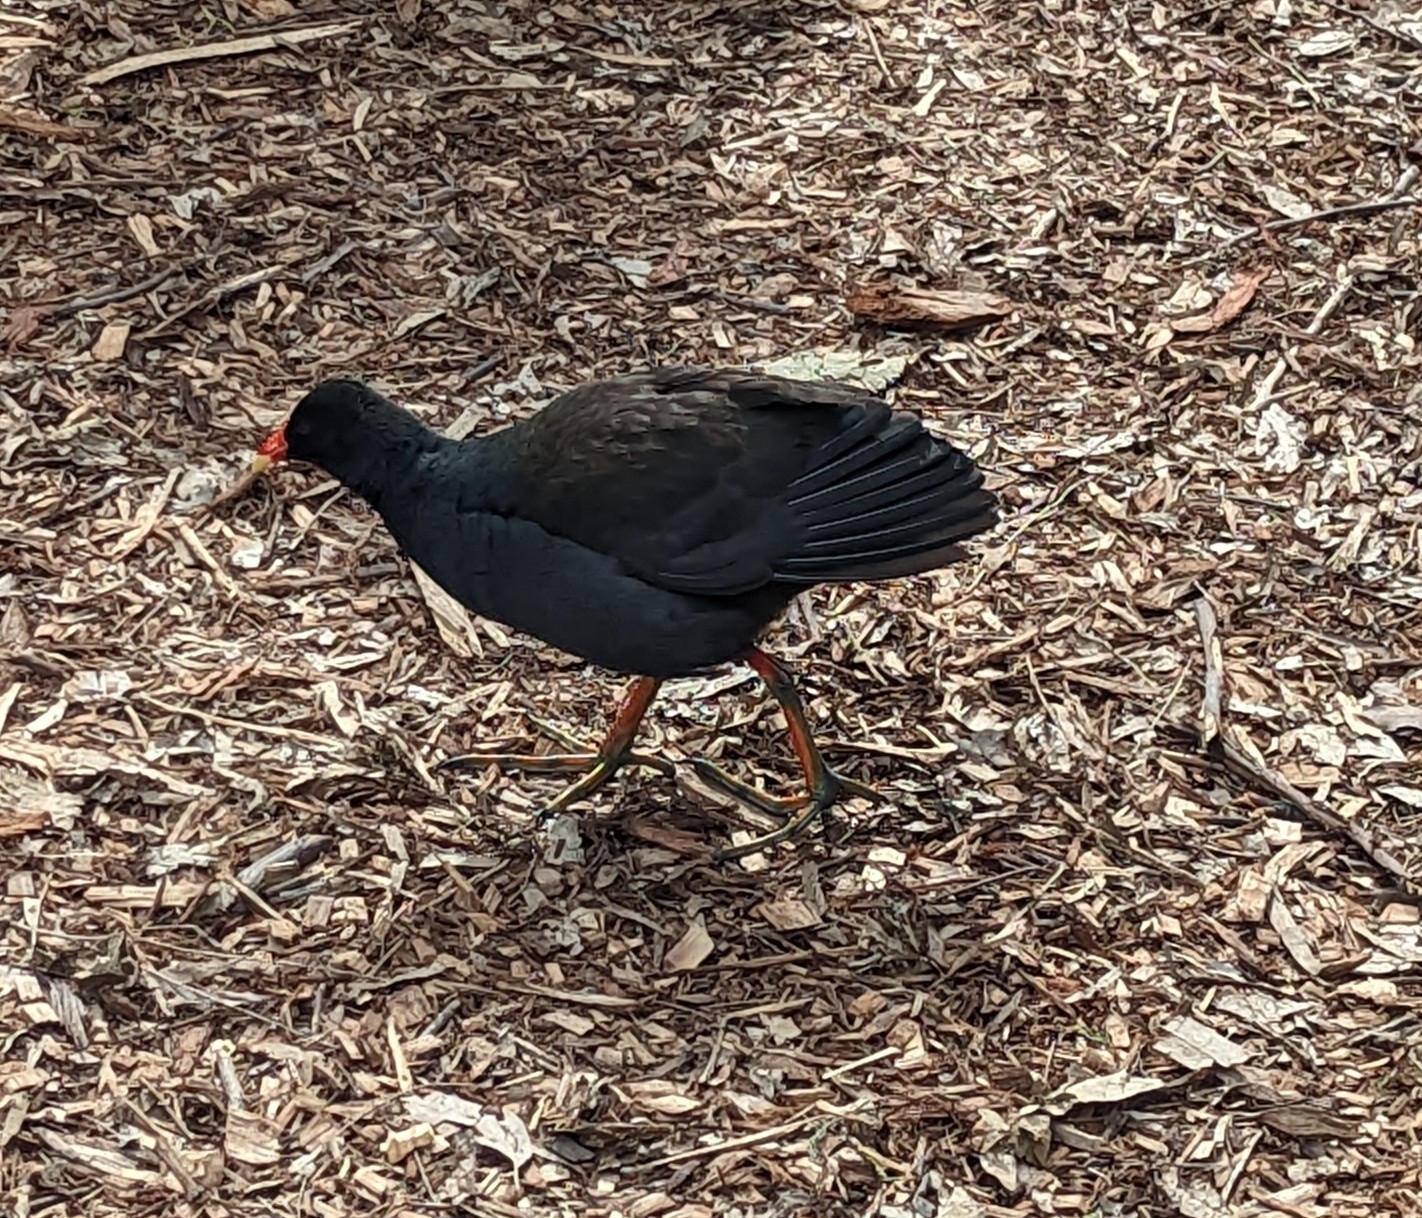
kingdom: Animalia
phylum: Chordata
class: Aves
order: Gruiformes
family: Rallidae
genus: Gallinula
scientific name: Gallinula tenebrosa
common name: Dusky moorhen
